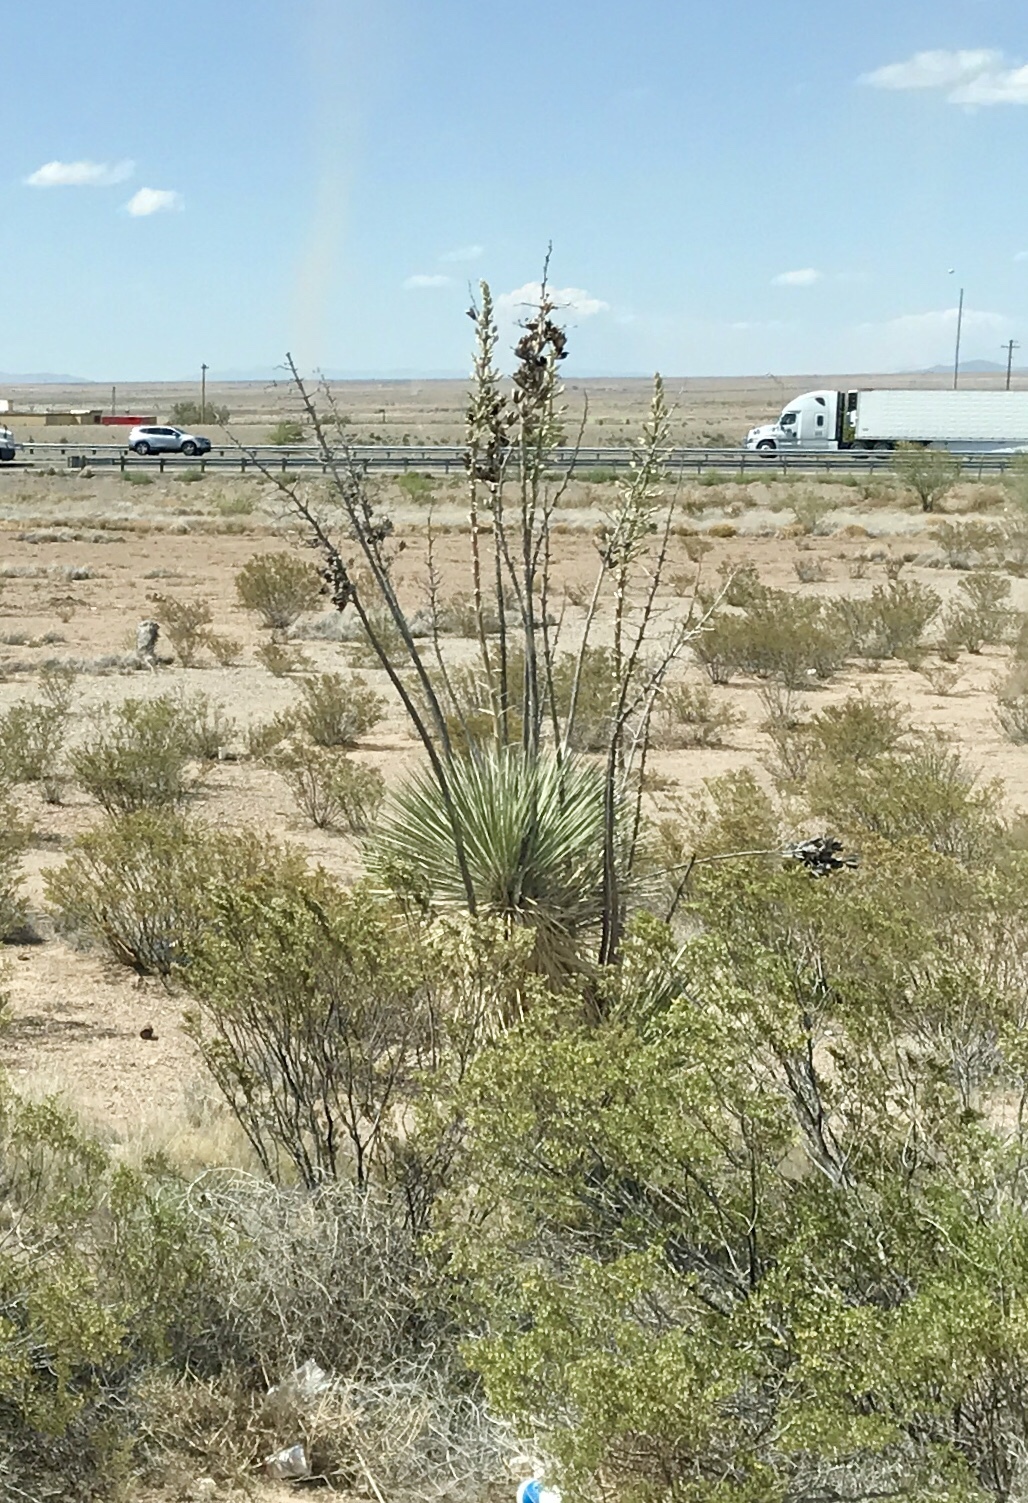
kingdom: Plantae
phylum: Tracheophyta
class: Liliopsida
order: Asparagales
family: Asparagaceae
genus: Yucca
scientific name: Yucca elata
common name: Palmella
